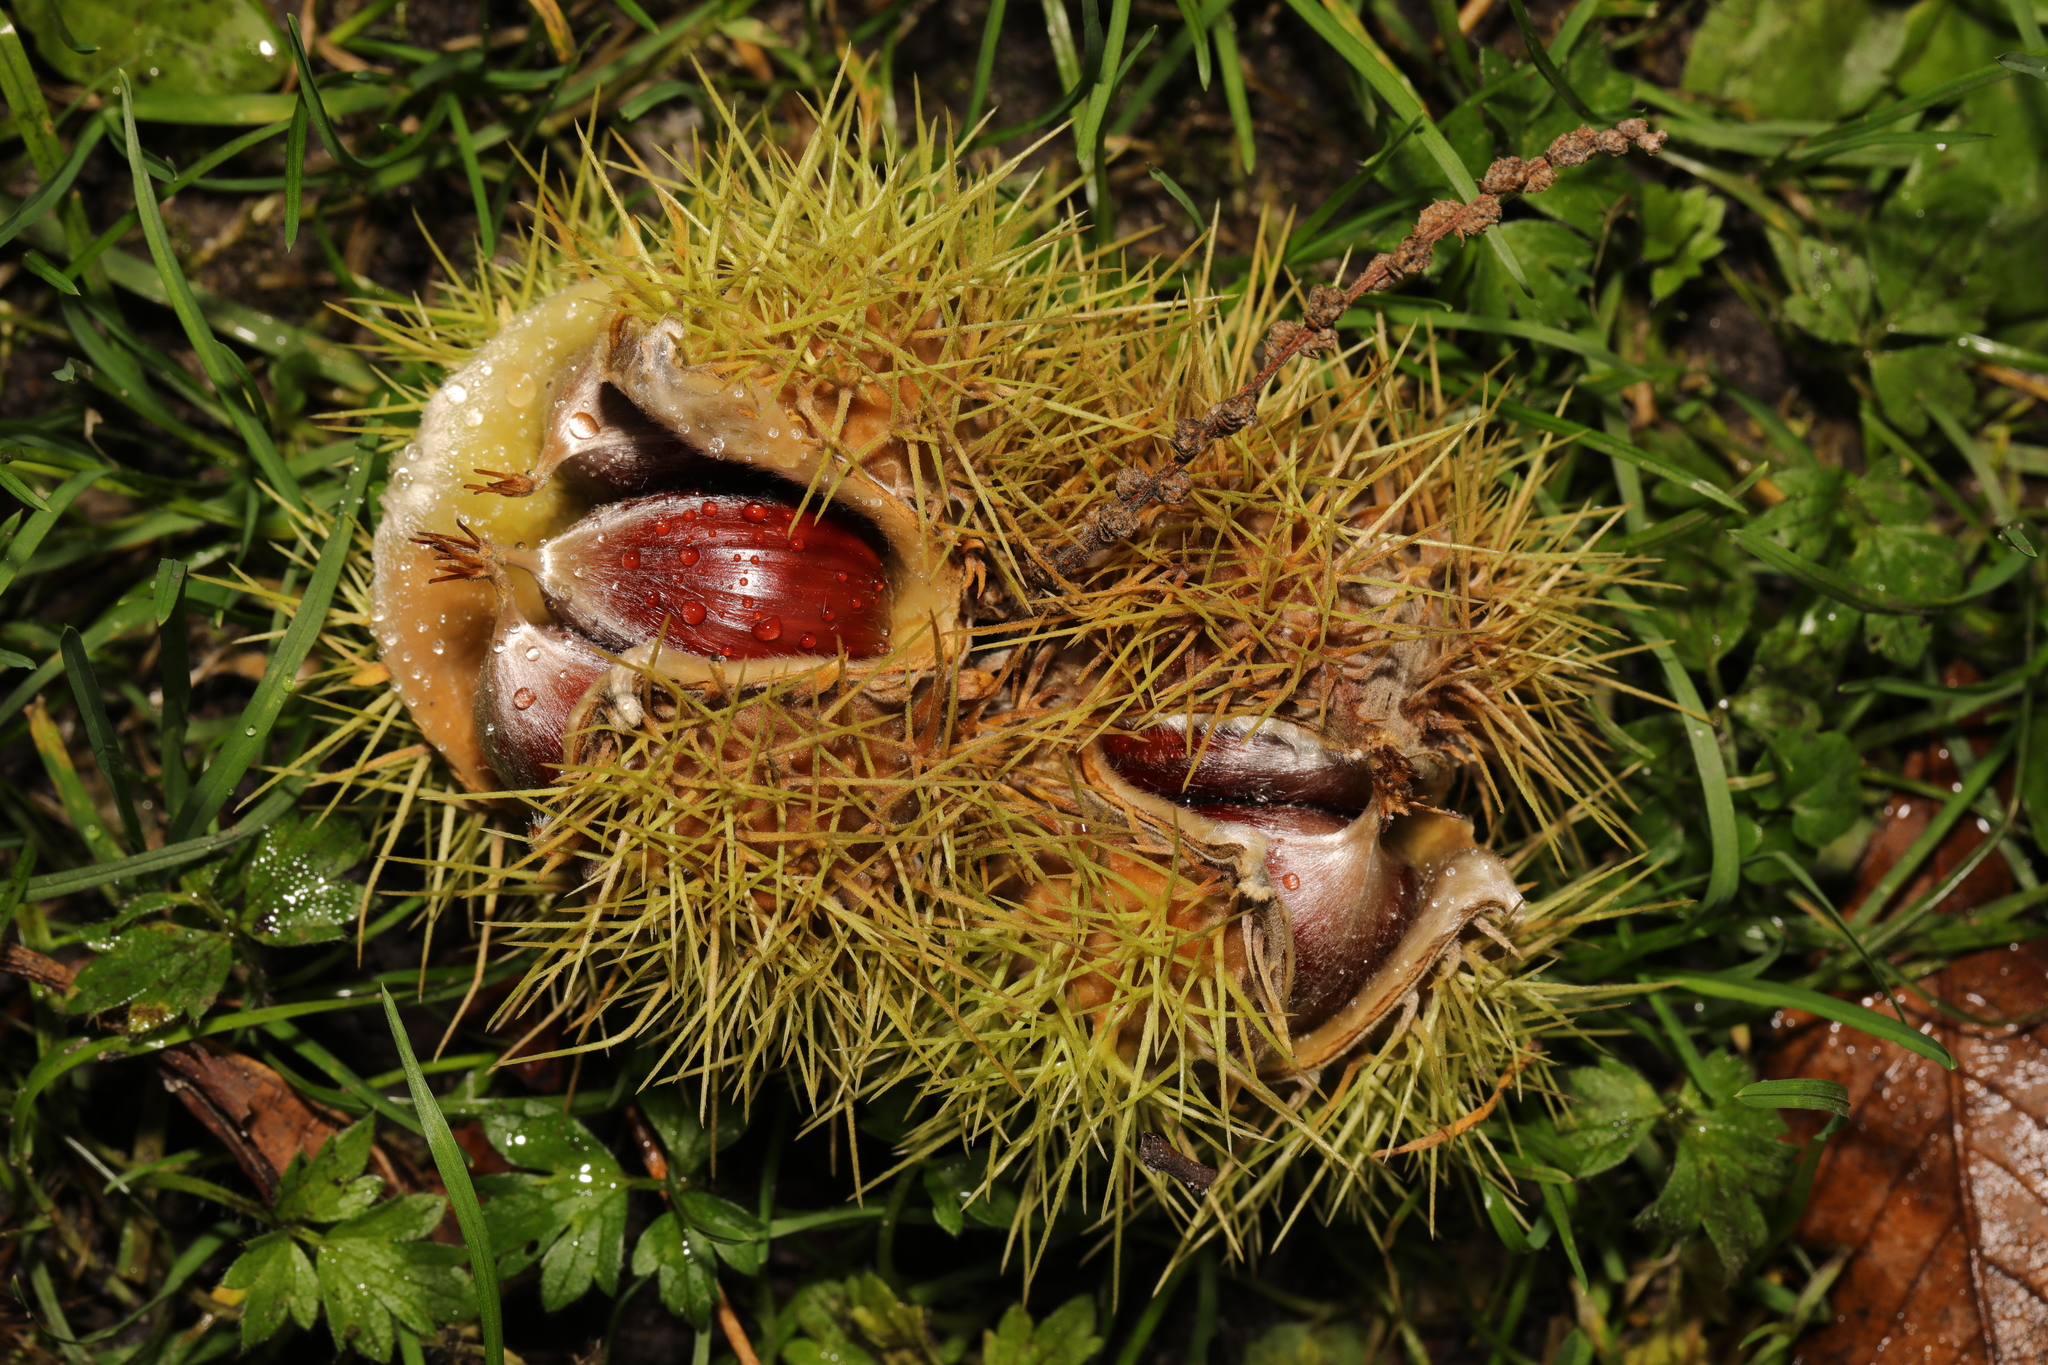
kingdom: Plantae
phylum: Tracheophyta
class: Magnoliopsida
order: Fagales
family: Fagaceae
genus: Castanea
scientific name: Castanea sativa
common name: Sweet chestnut
